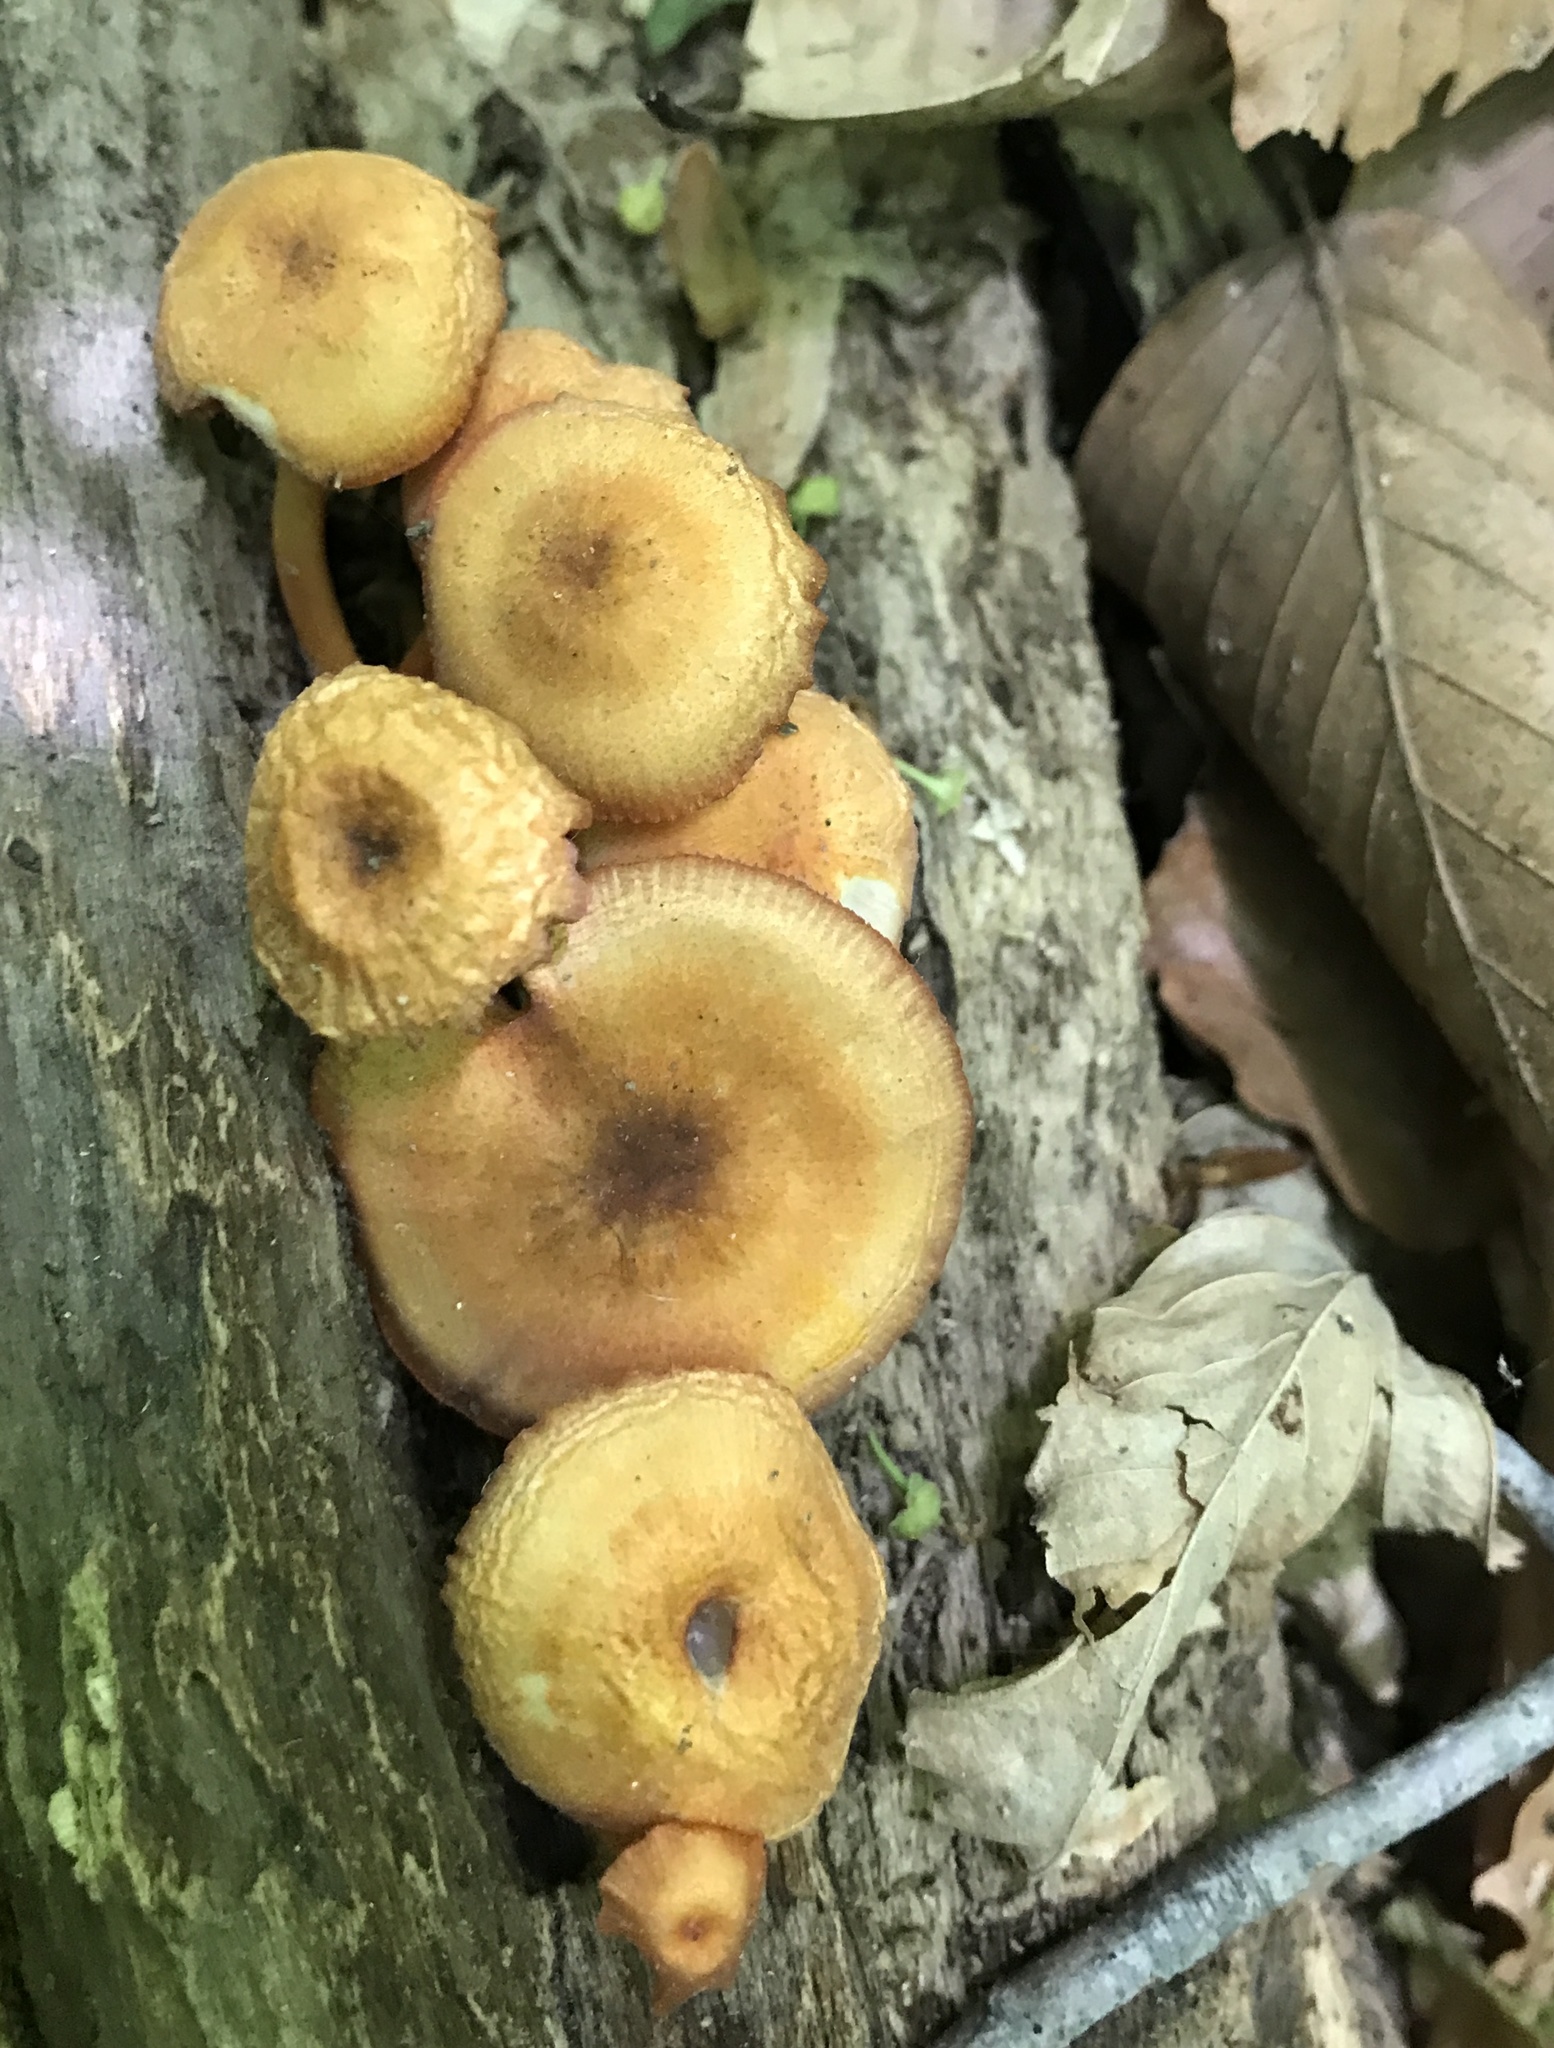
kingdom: Fungi
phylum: Basidiomycota
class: Agaricomycetes
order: Agaricales
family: Mycenaceae
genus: Mycena
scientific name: Mycena leaiana
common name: Orange mycena
